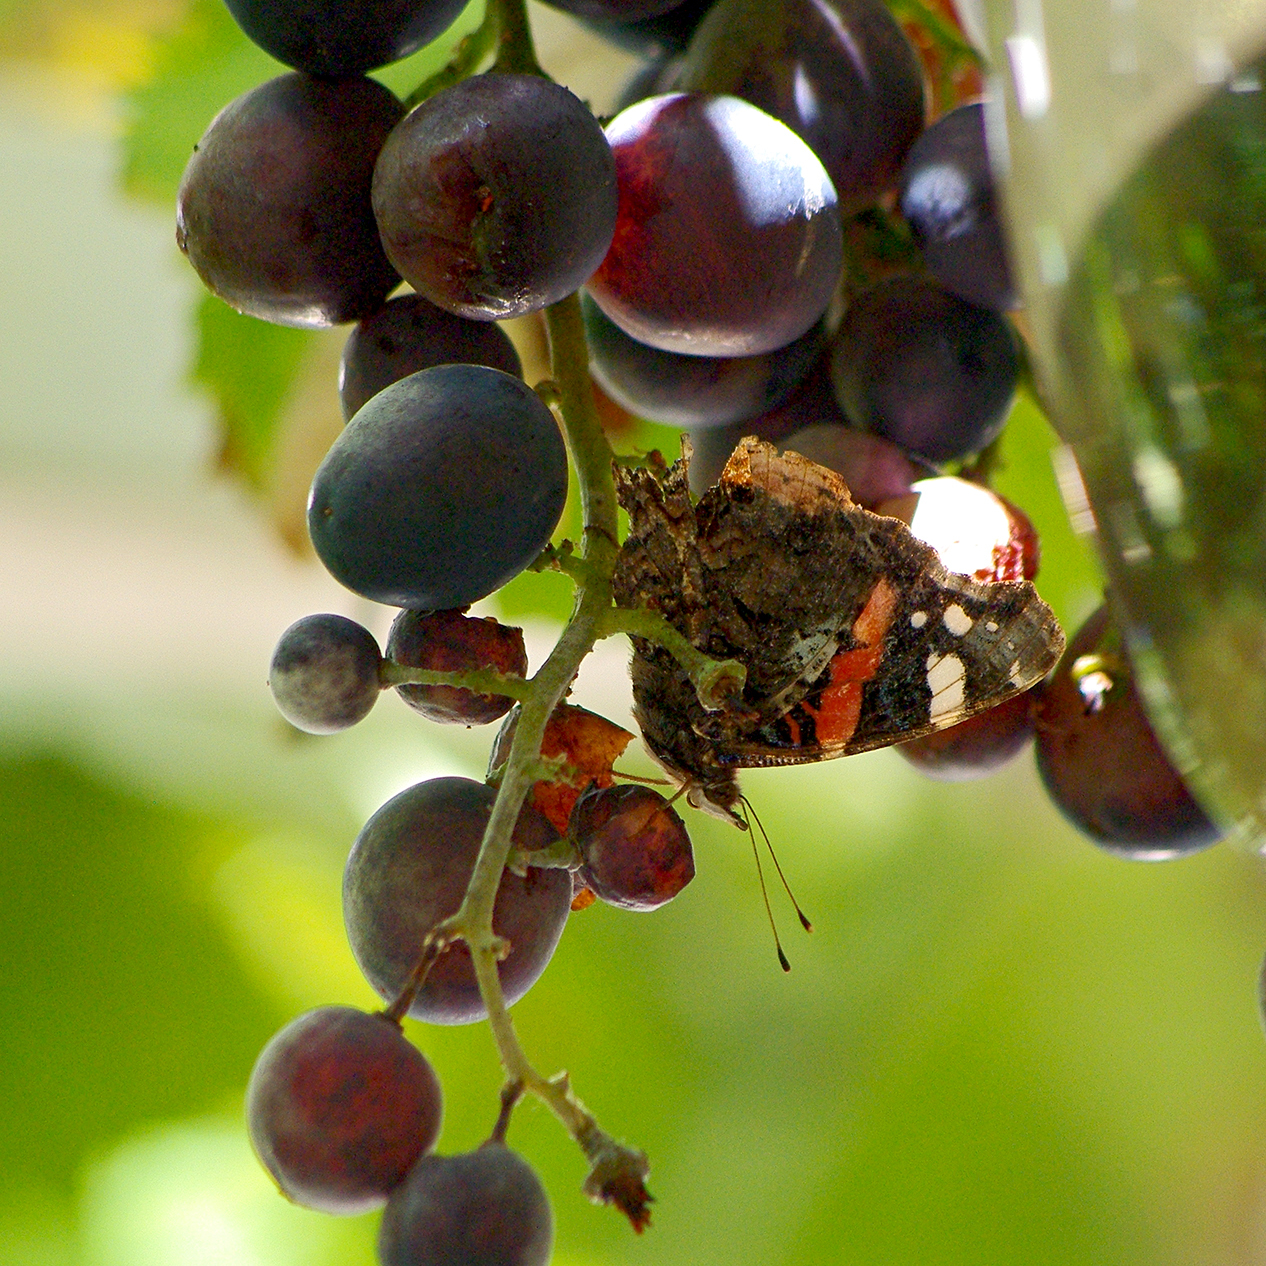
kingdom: Animalia
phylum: Arthropoda
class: Insecta
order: Lepidoptera
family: Nymphalidae
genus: Vanessa
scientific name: Vanessa atalanta
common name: Red admiral
